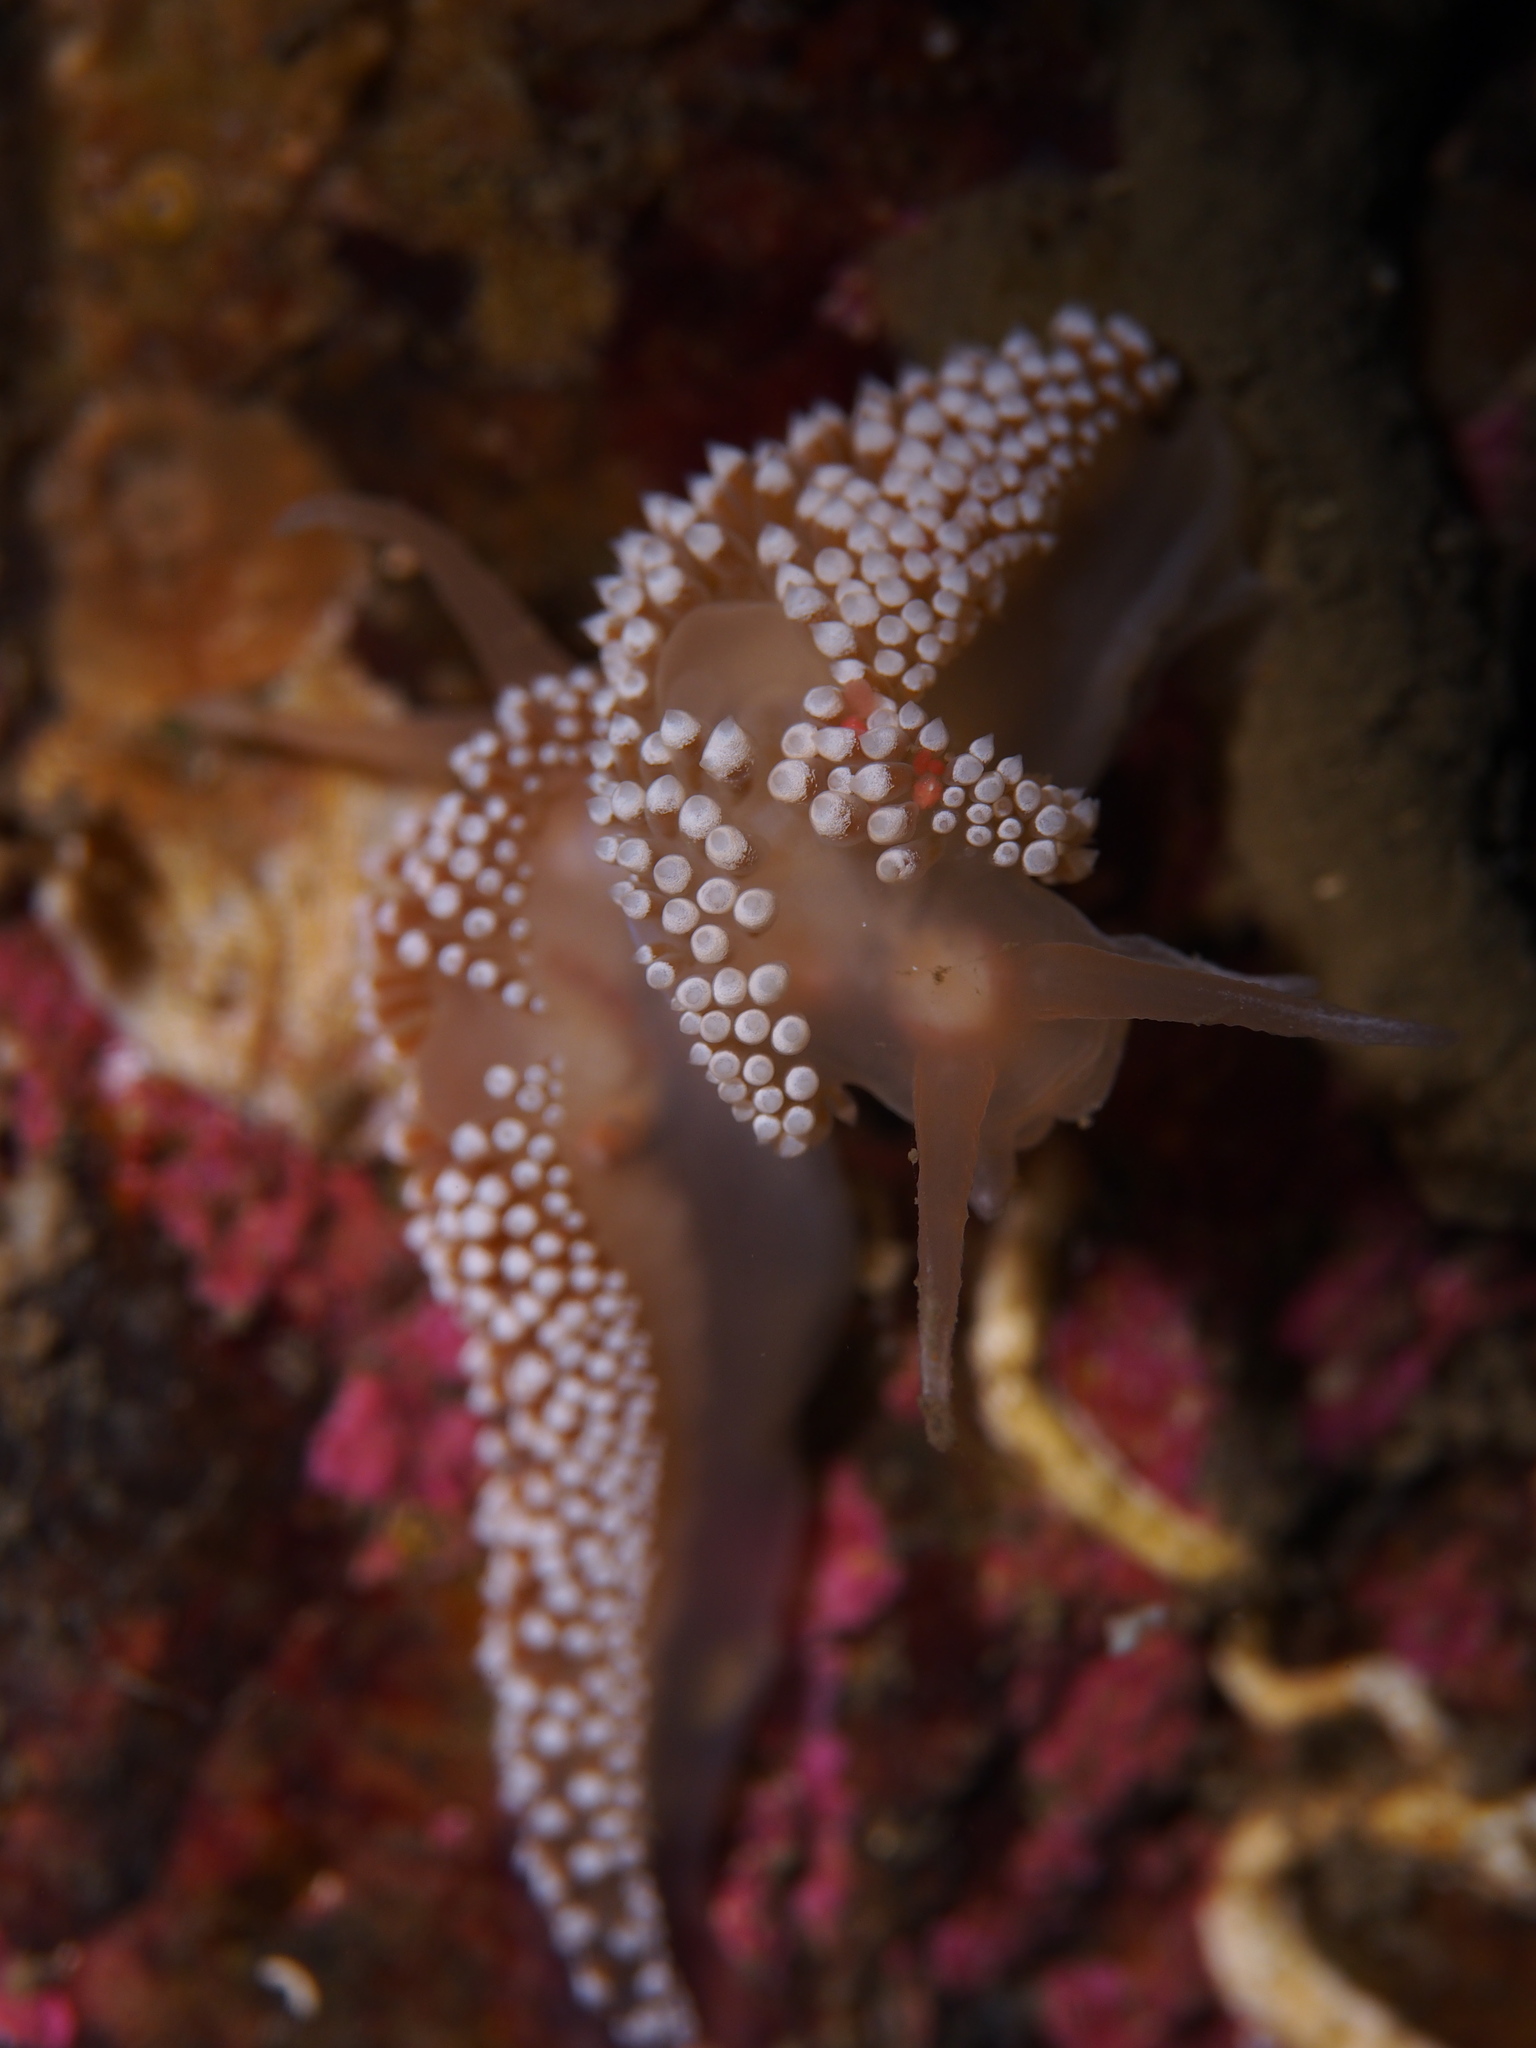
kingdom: Animalia
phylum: Mollusca
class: Gastropoda
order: Nudibranchia
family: Coryphellidae
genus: Coryphella
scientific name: Coryphella verrucosa
